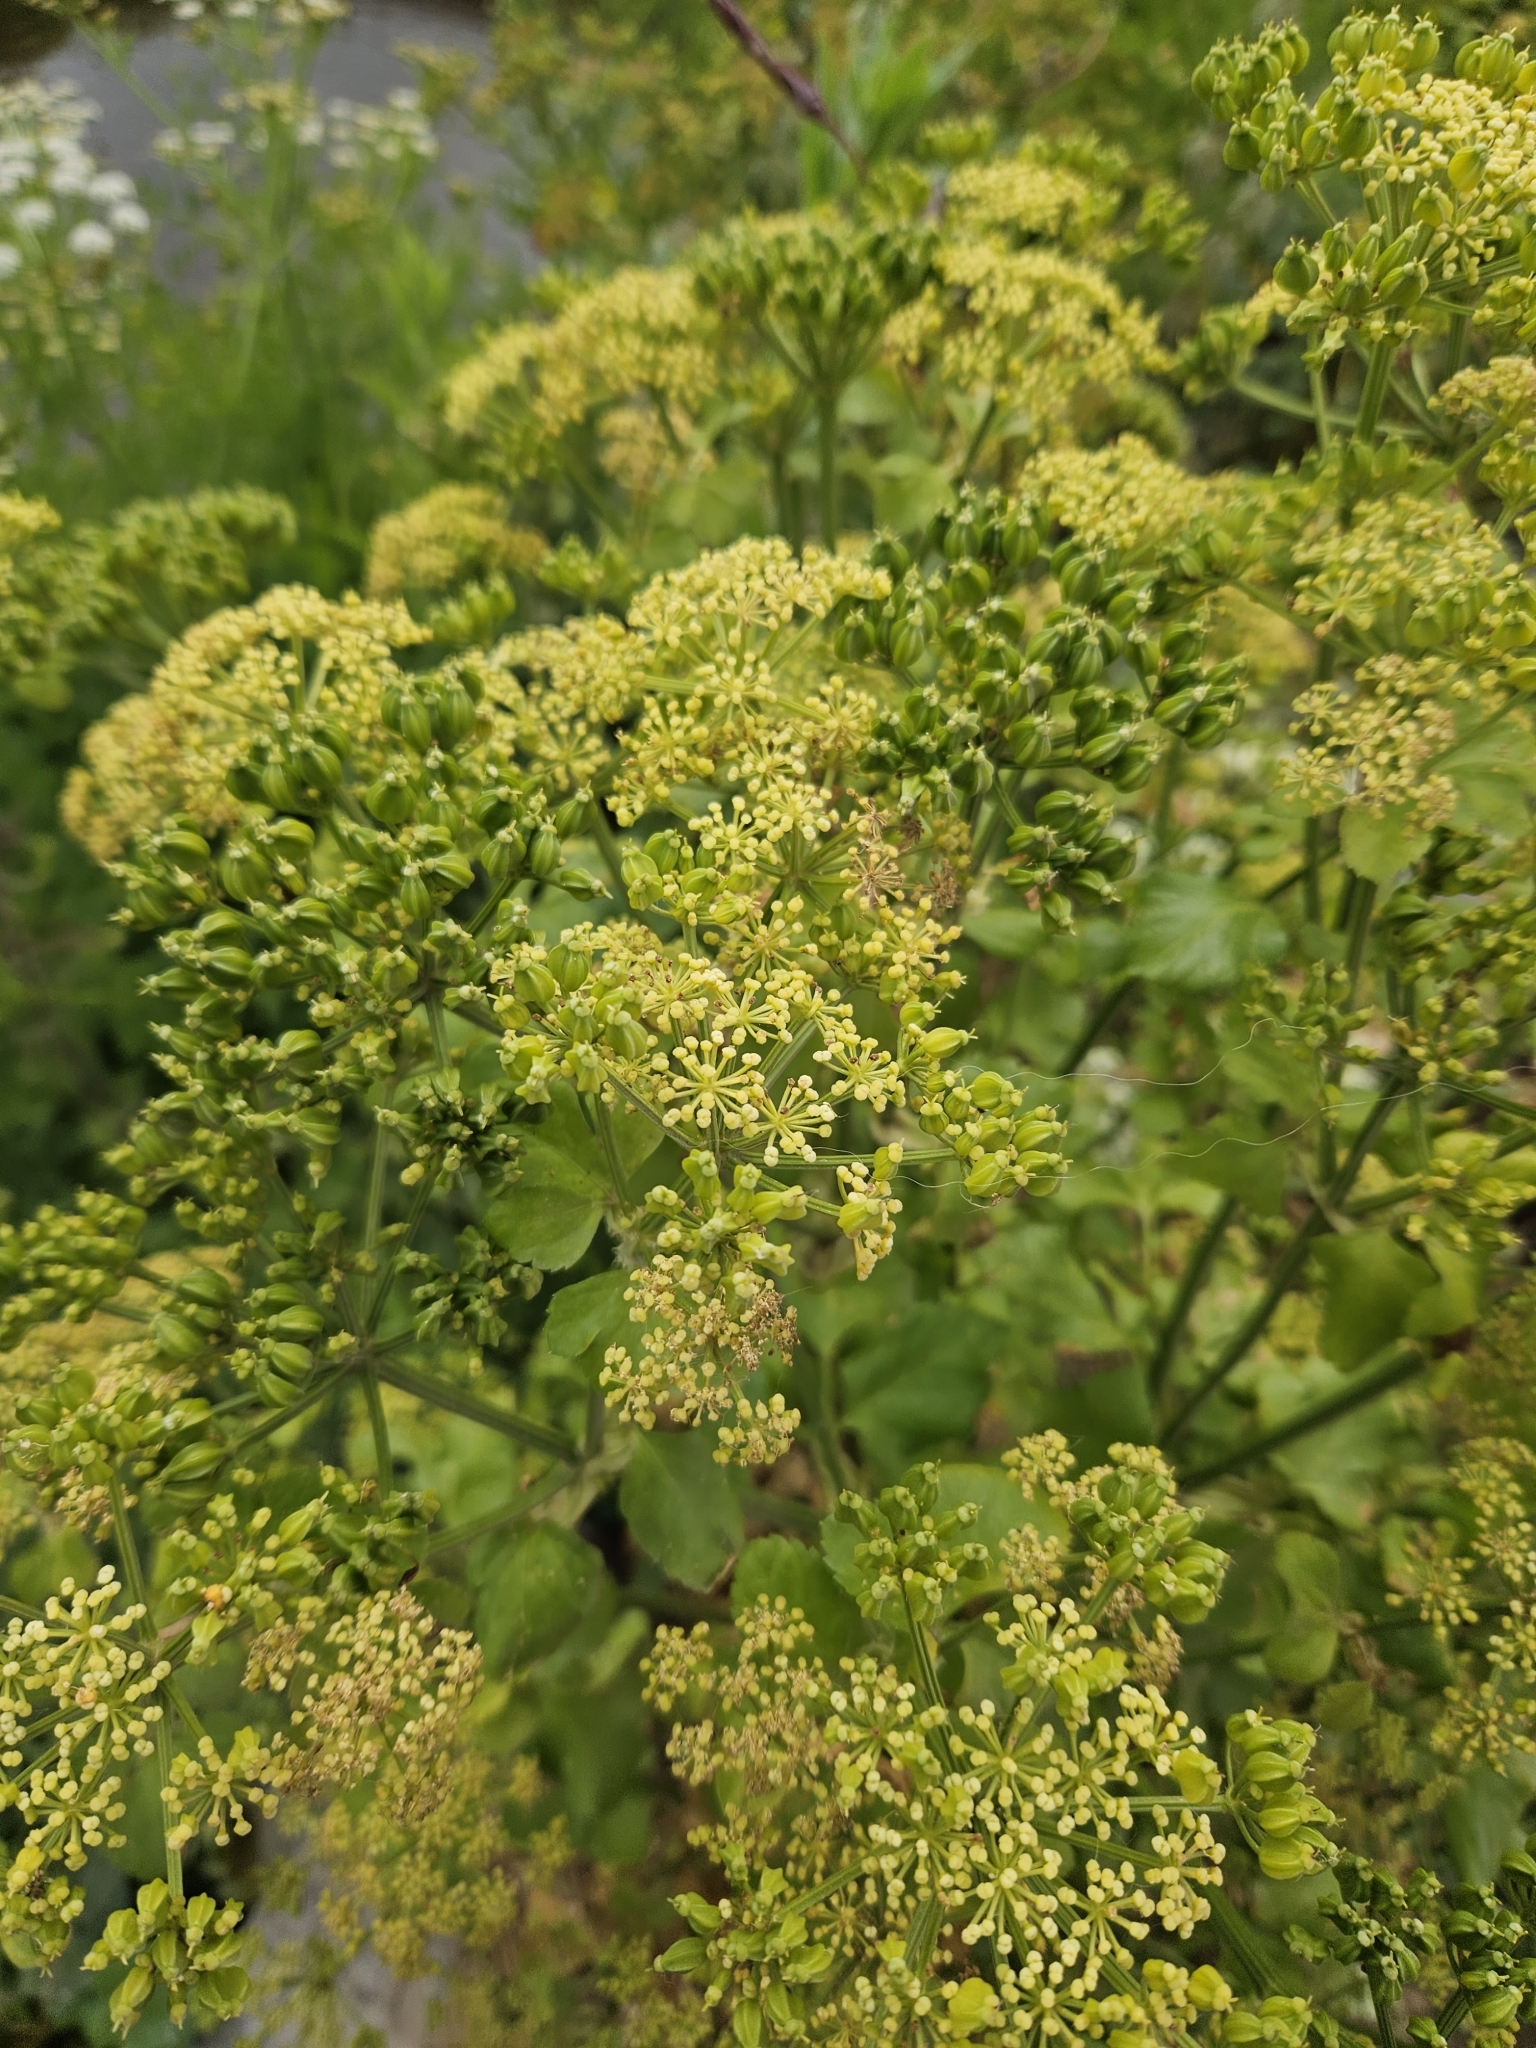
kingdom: Plantae
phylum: Tracheophyta
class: Magnoliopsida
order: Apiales
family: Apiaceae
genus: Smyrnium
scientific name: Smyrnium olusatrum
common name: Alexanders
